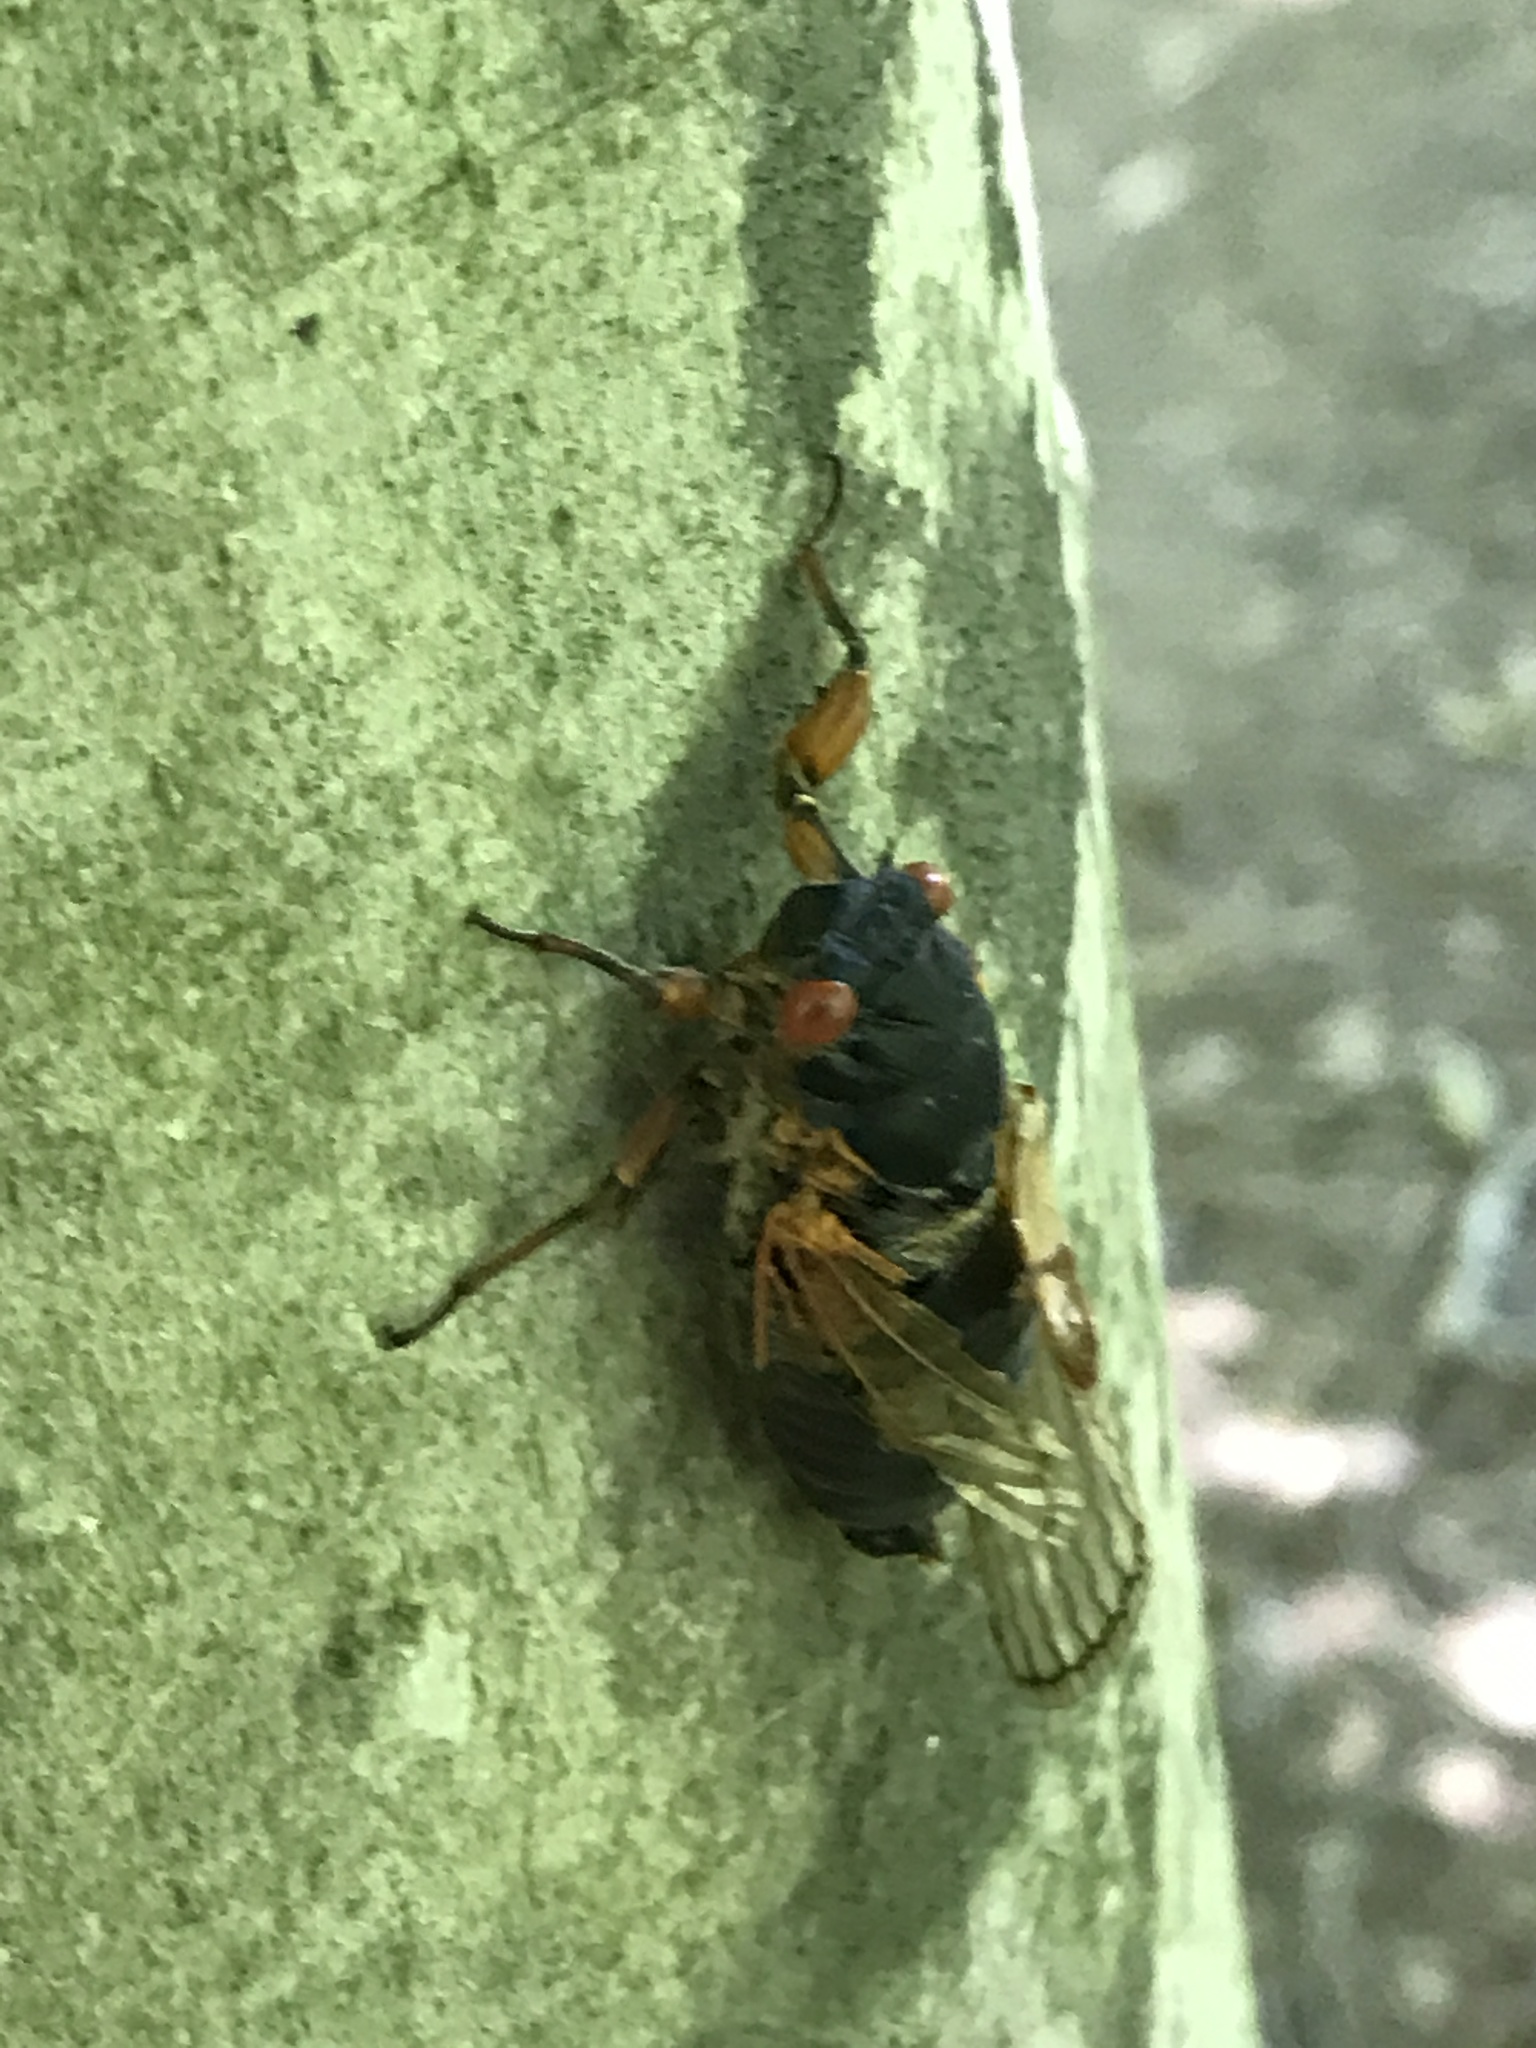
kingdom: Animalia
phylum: Arthropoda
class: Insecta
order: Hemiptera
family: Cicadidae
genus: Magicicada
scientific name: Magicicada septendecim
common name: Periodical cicada
